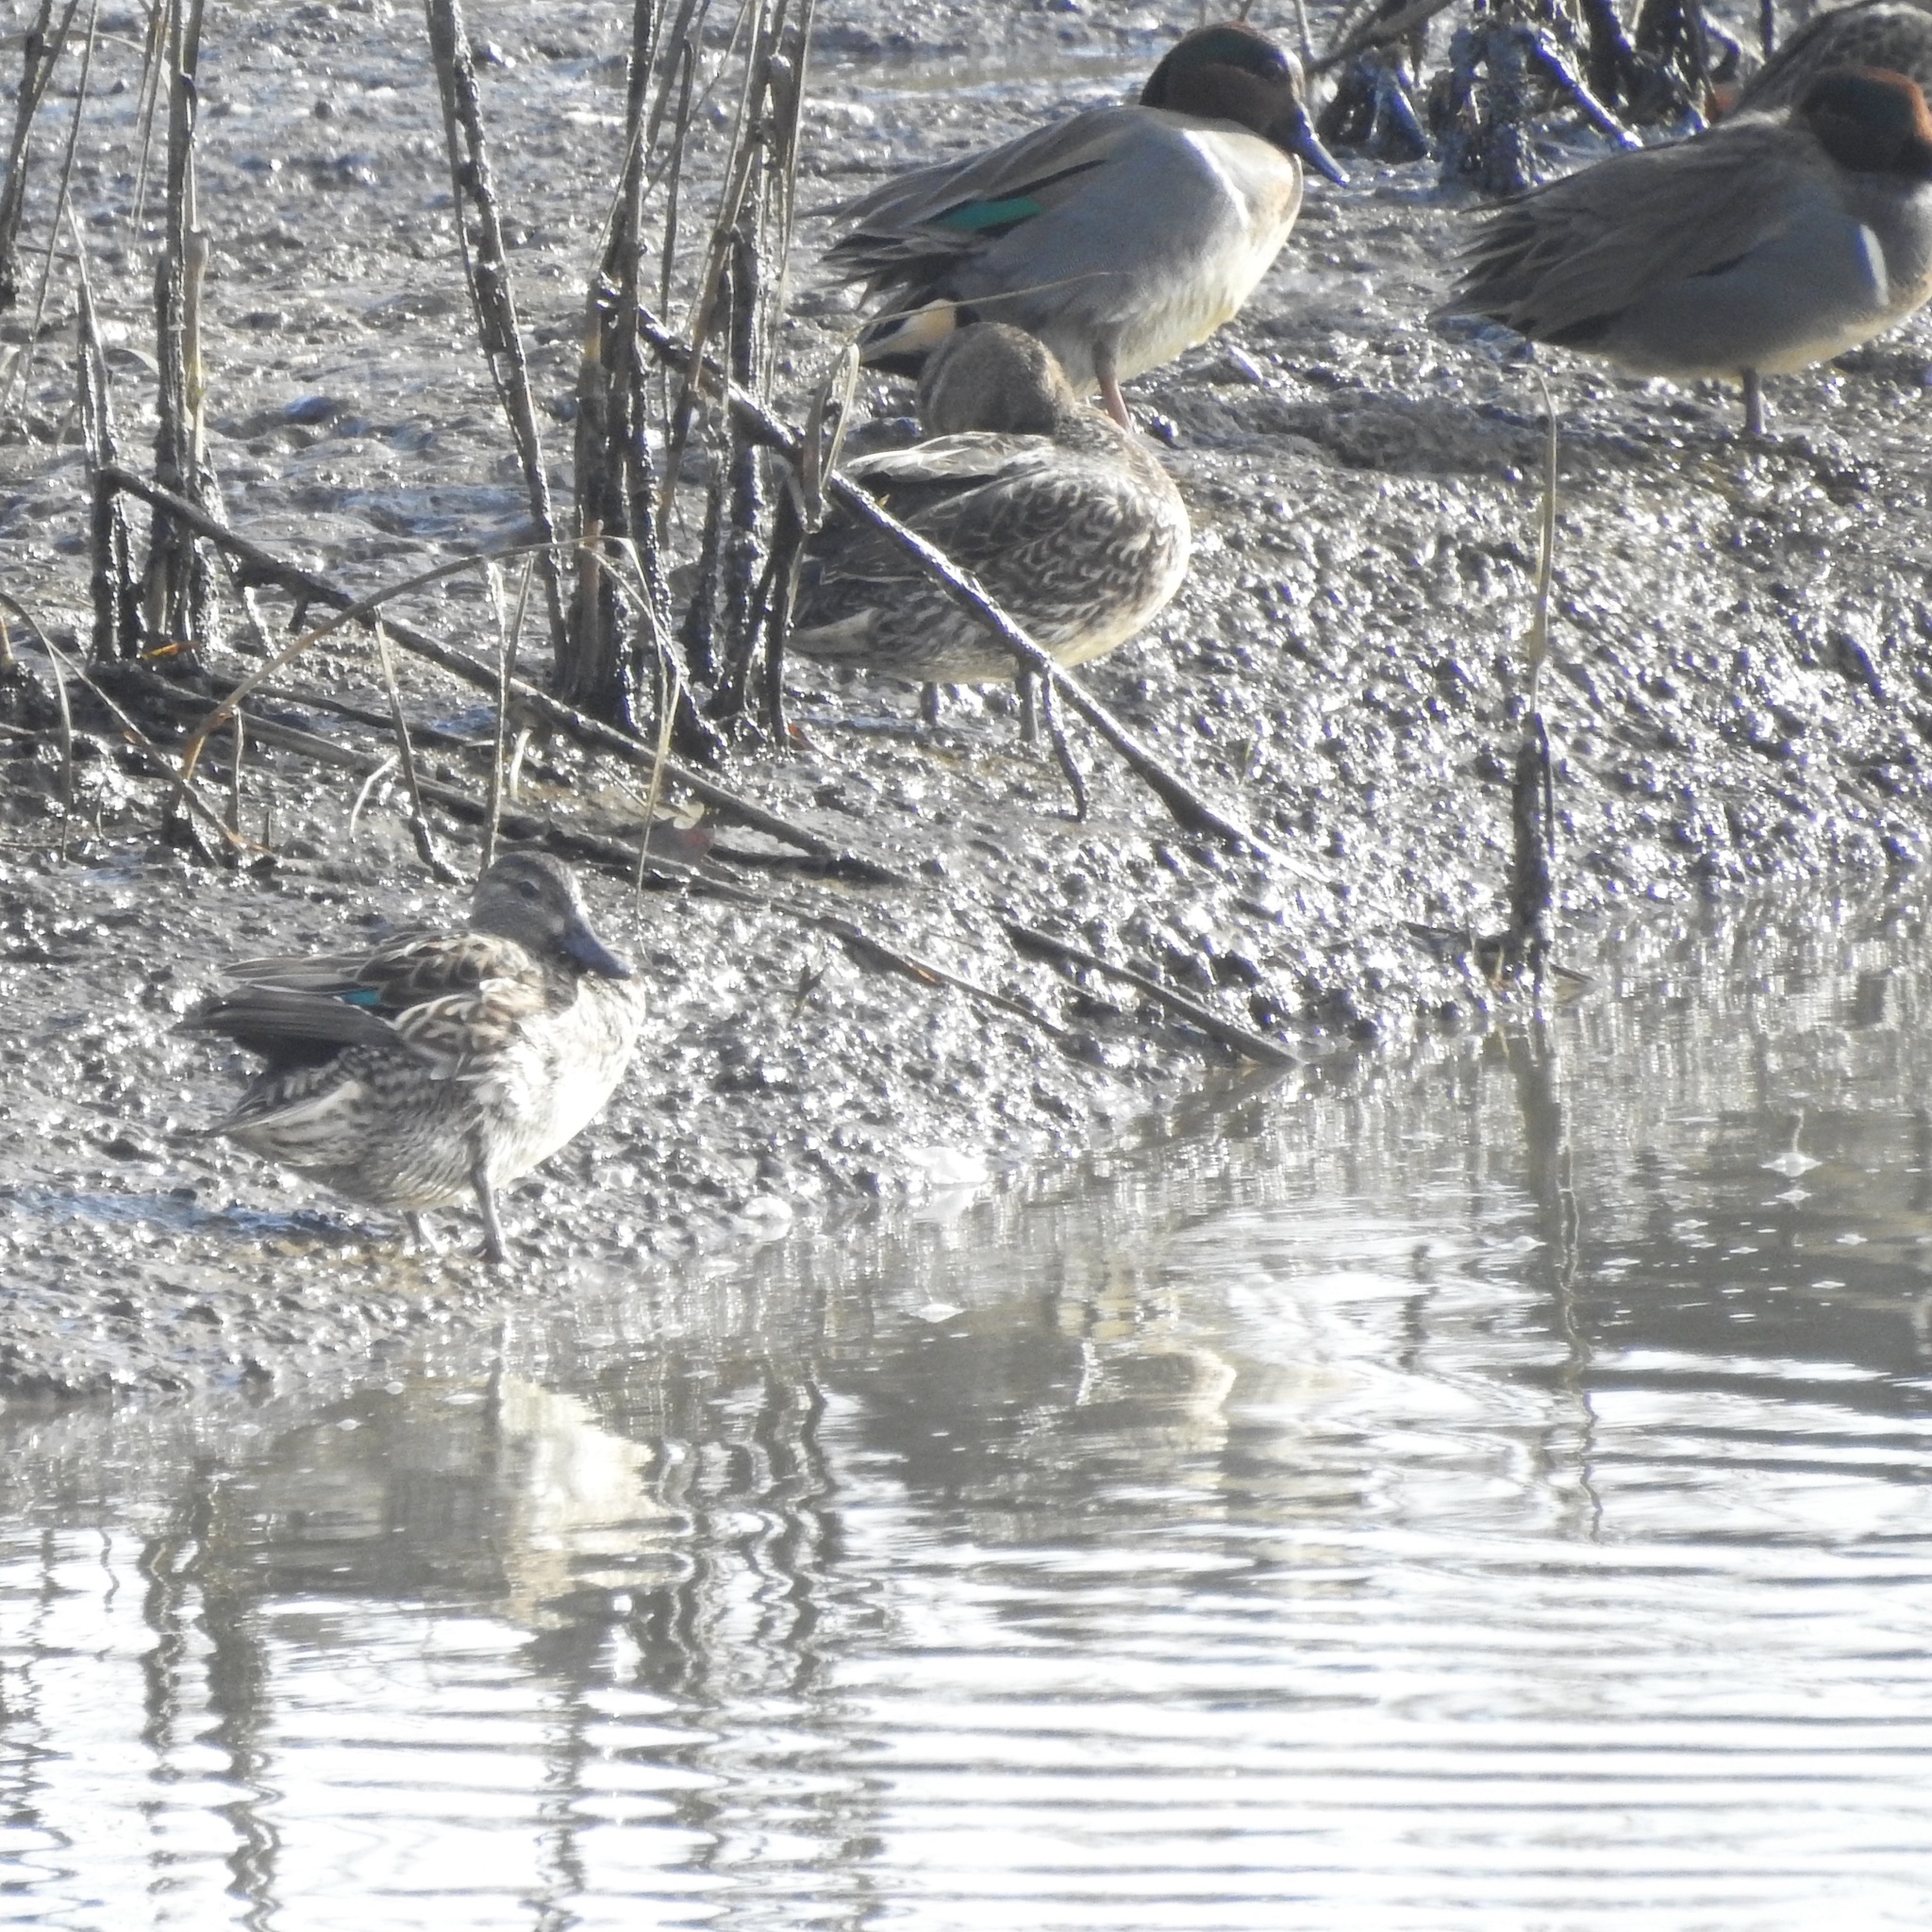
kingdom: Animalia
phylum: Chordata
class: Aves
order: Anseriformes
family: Anatidae
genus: Anas
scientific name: Anas crecca
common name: Eurasian teal
